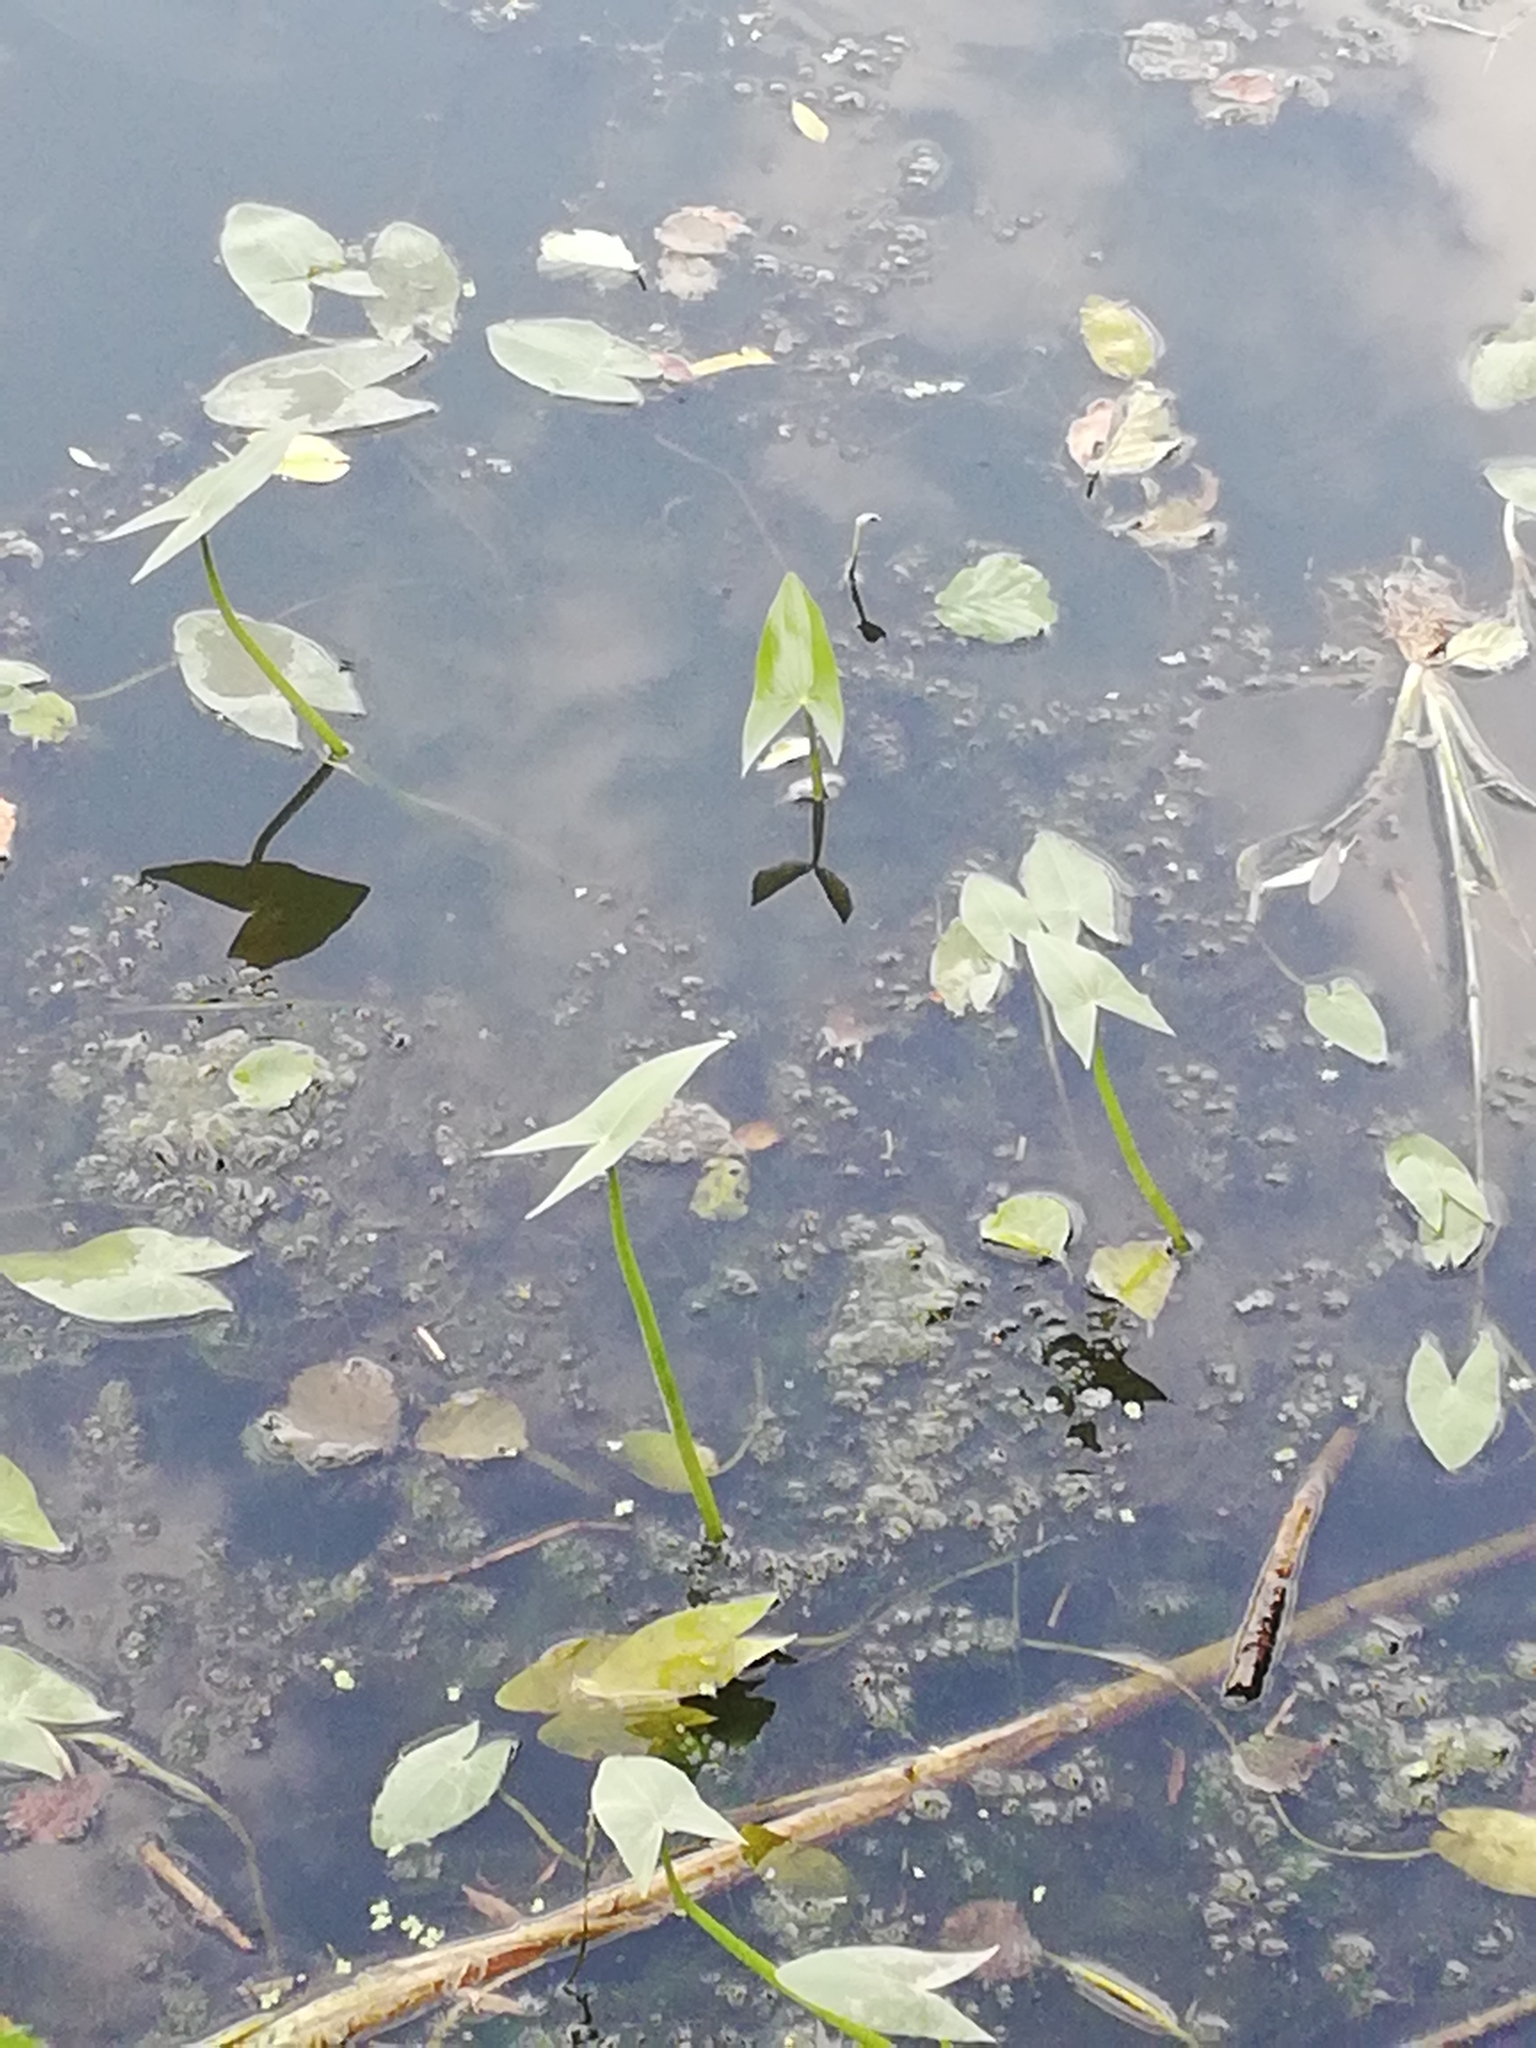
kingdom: Plantae
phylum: Tracheophyta
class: Liliopsida
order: Alismatales
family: Alismataceae
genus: Sagittaria
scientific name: Sagittaria sagittifolia
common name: Arrowhead
